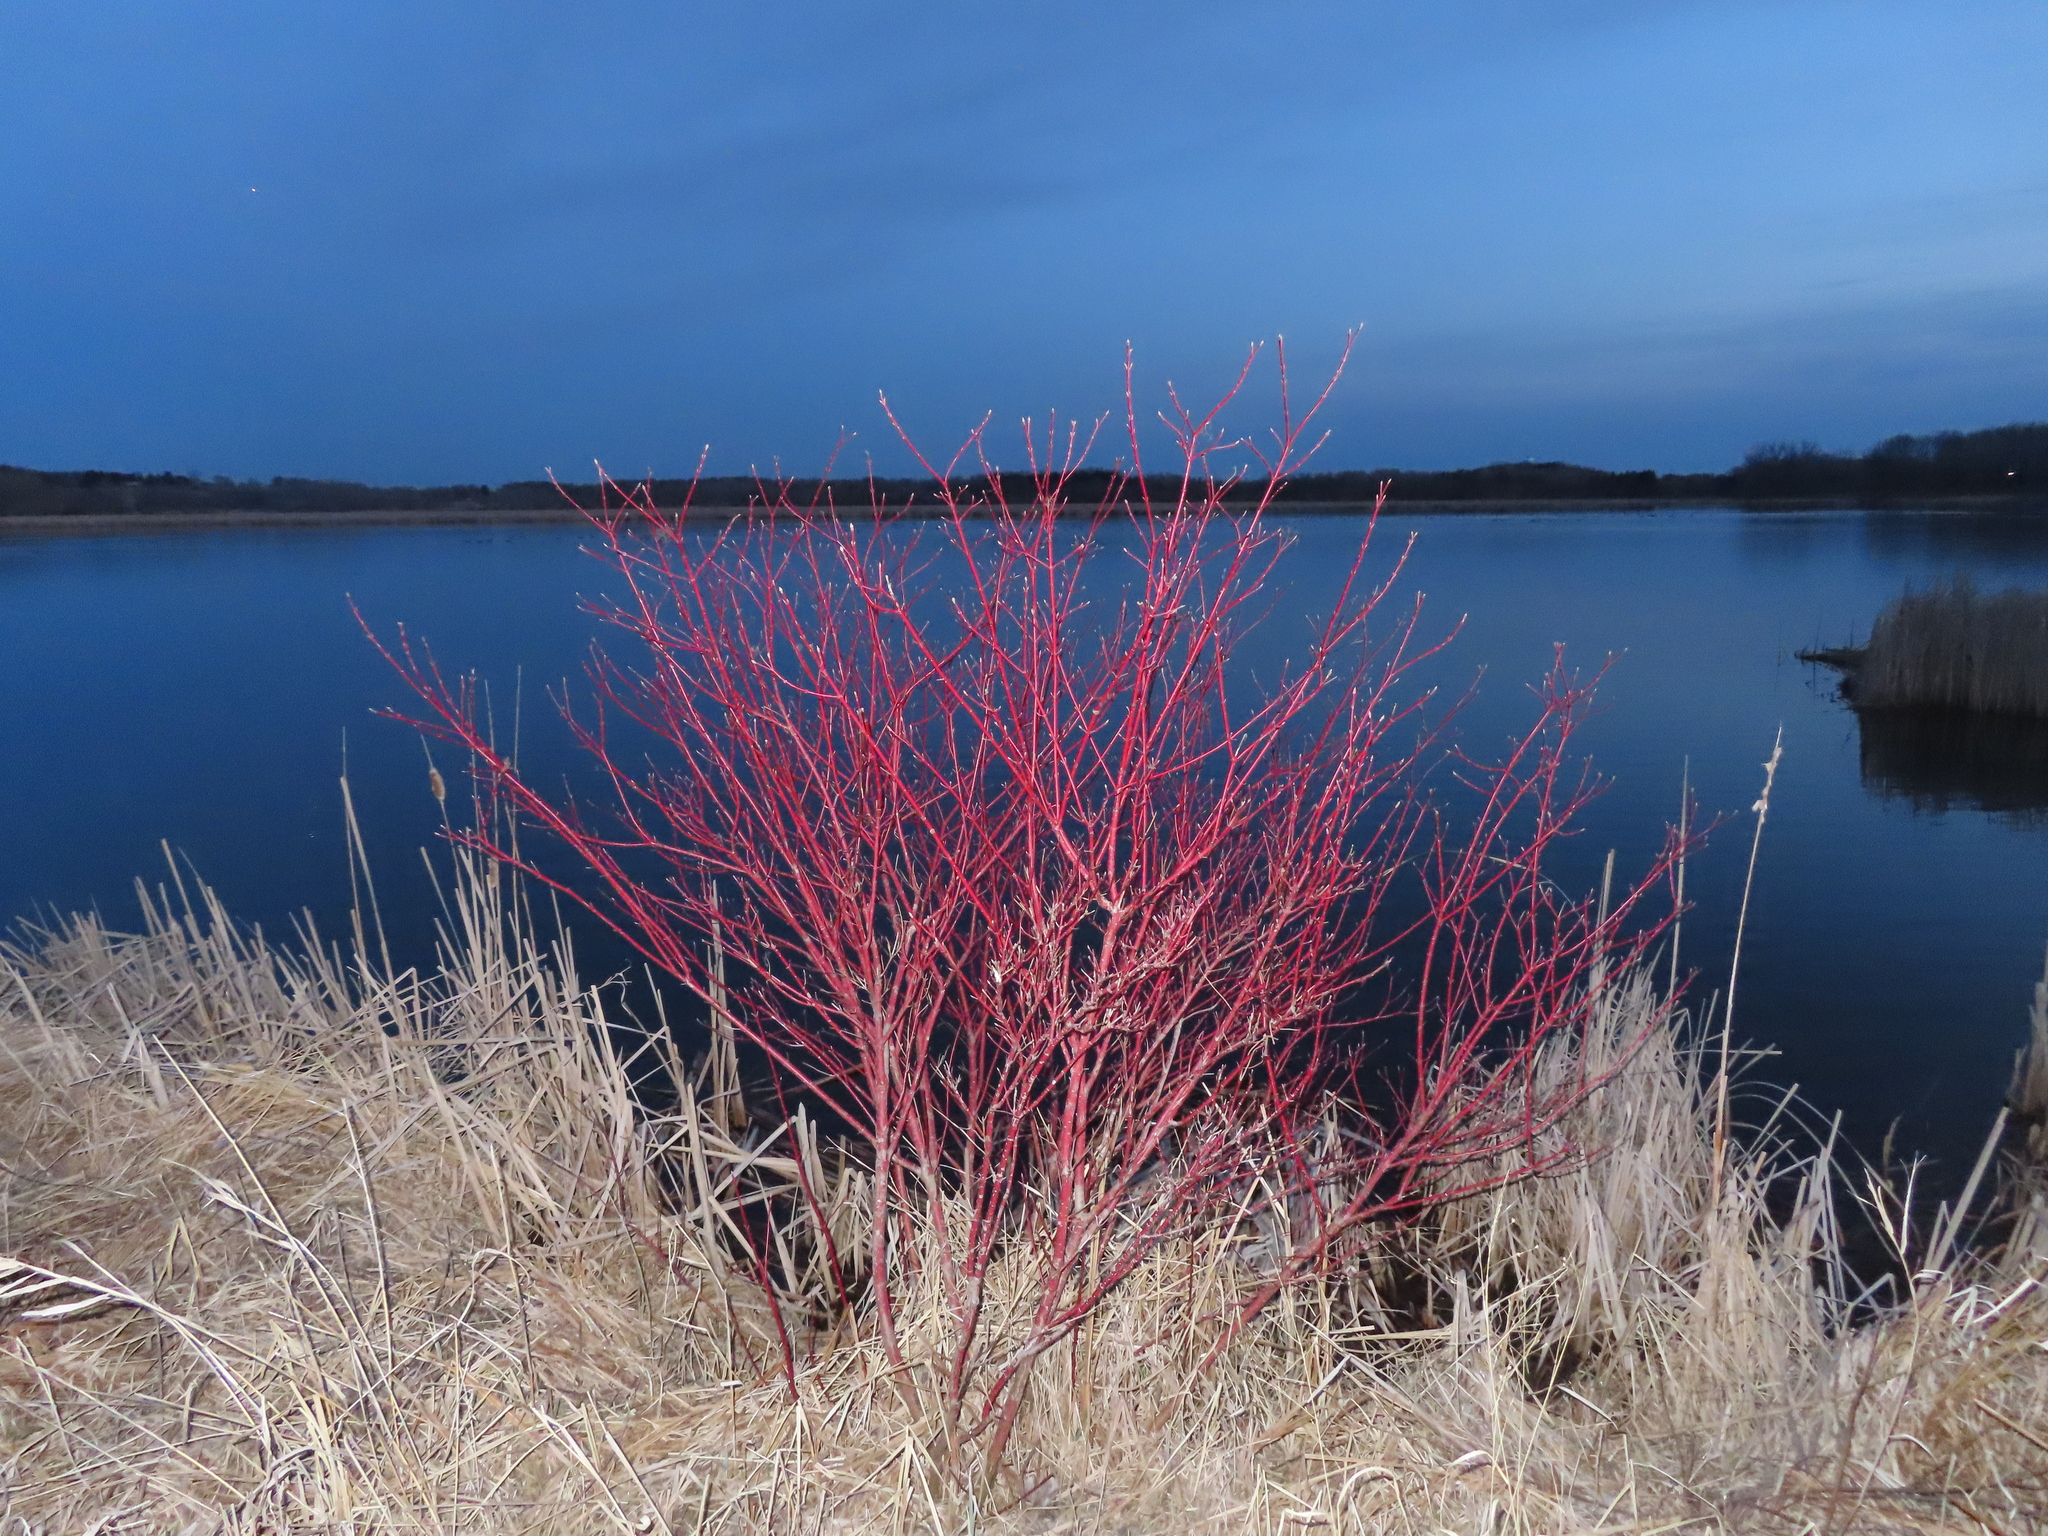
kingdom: Plantae
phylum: Tracheophyta
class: Magnoliopsida
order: Cornales
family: Cornaceae
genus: Cornus
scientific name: Cornus sericea
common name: Red-osier dogwood
